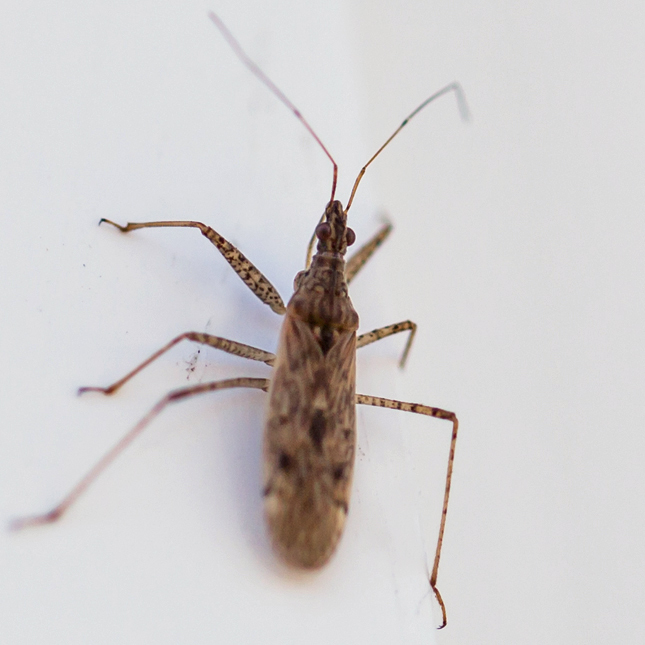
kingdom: Animalia
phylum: Arthropoda
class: Insecta
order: Hemiptera
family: Nabidae
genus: Nabis
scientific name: Nabis roseipennis
